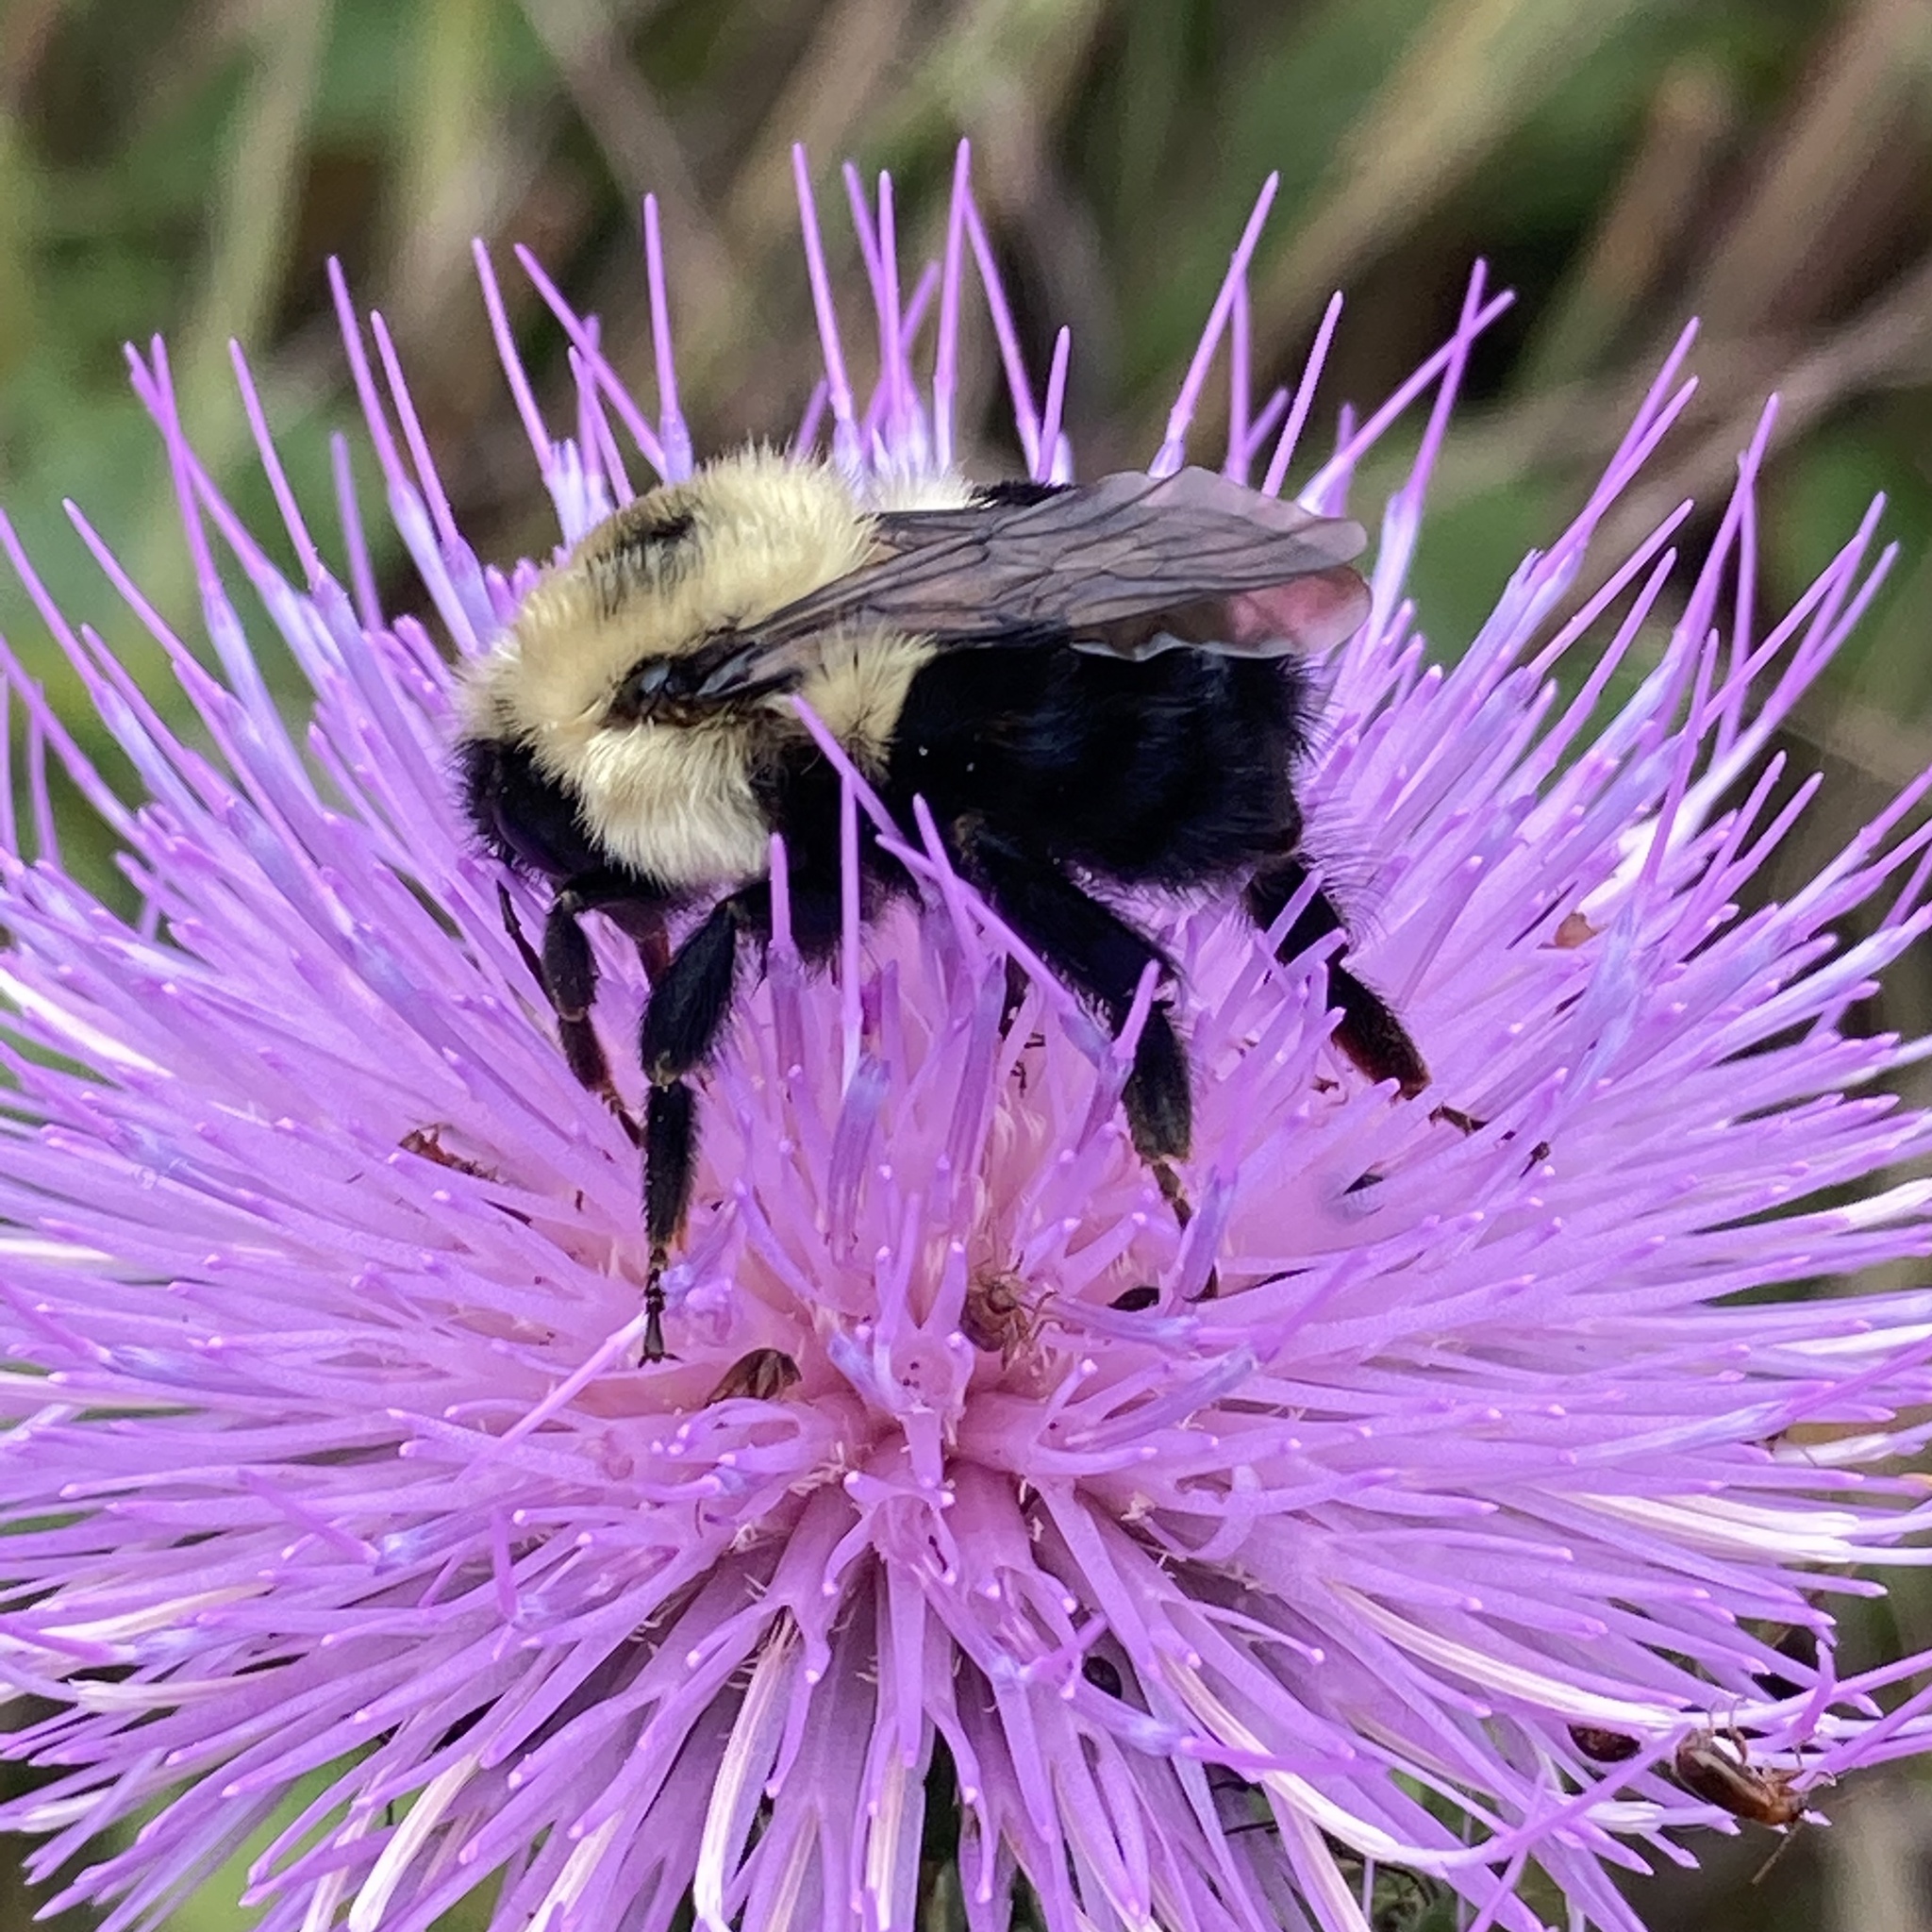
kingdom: Animalia
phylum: Arthropoda
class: Insecta
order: Hymenoptera
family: Apidae
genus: Bombus
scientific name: Bombus bimaculatus
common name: Two-spotted bumble bee
